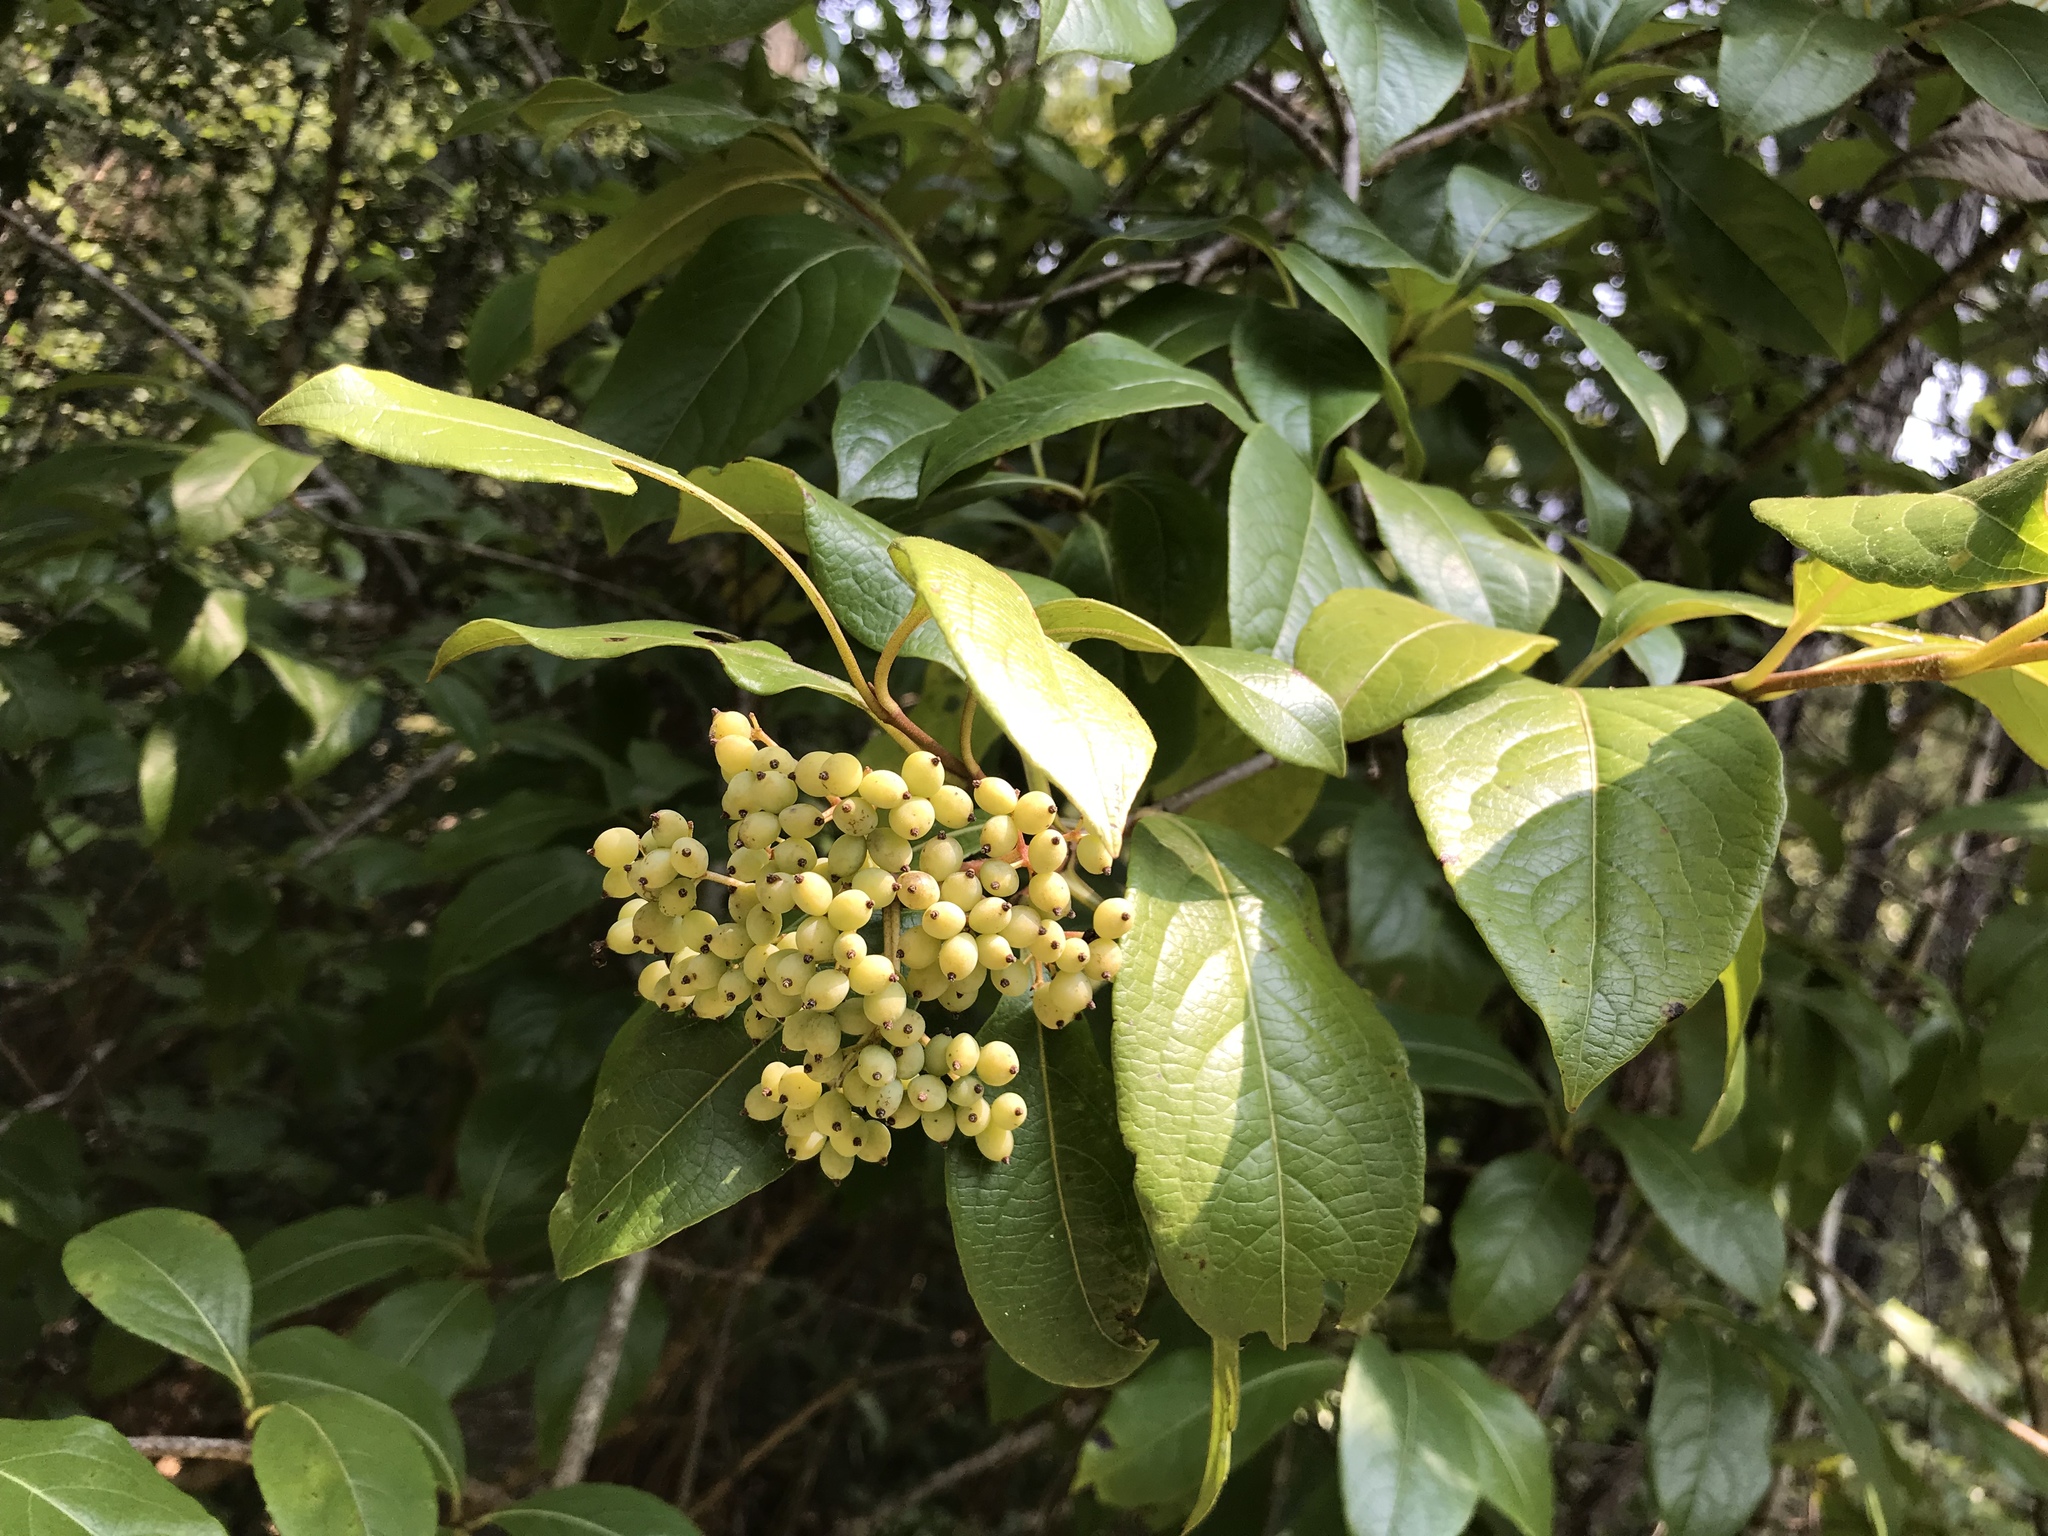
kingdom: Plantae
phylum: Tracheophyta
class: Magnoliopsida
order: Dipsacales
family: Viburnaceae
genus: Viburnum
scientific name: Viburnum nudum
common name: Possum haw
